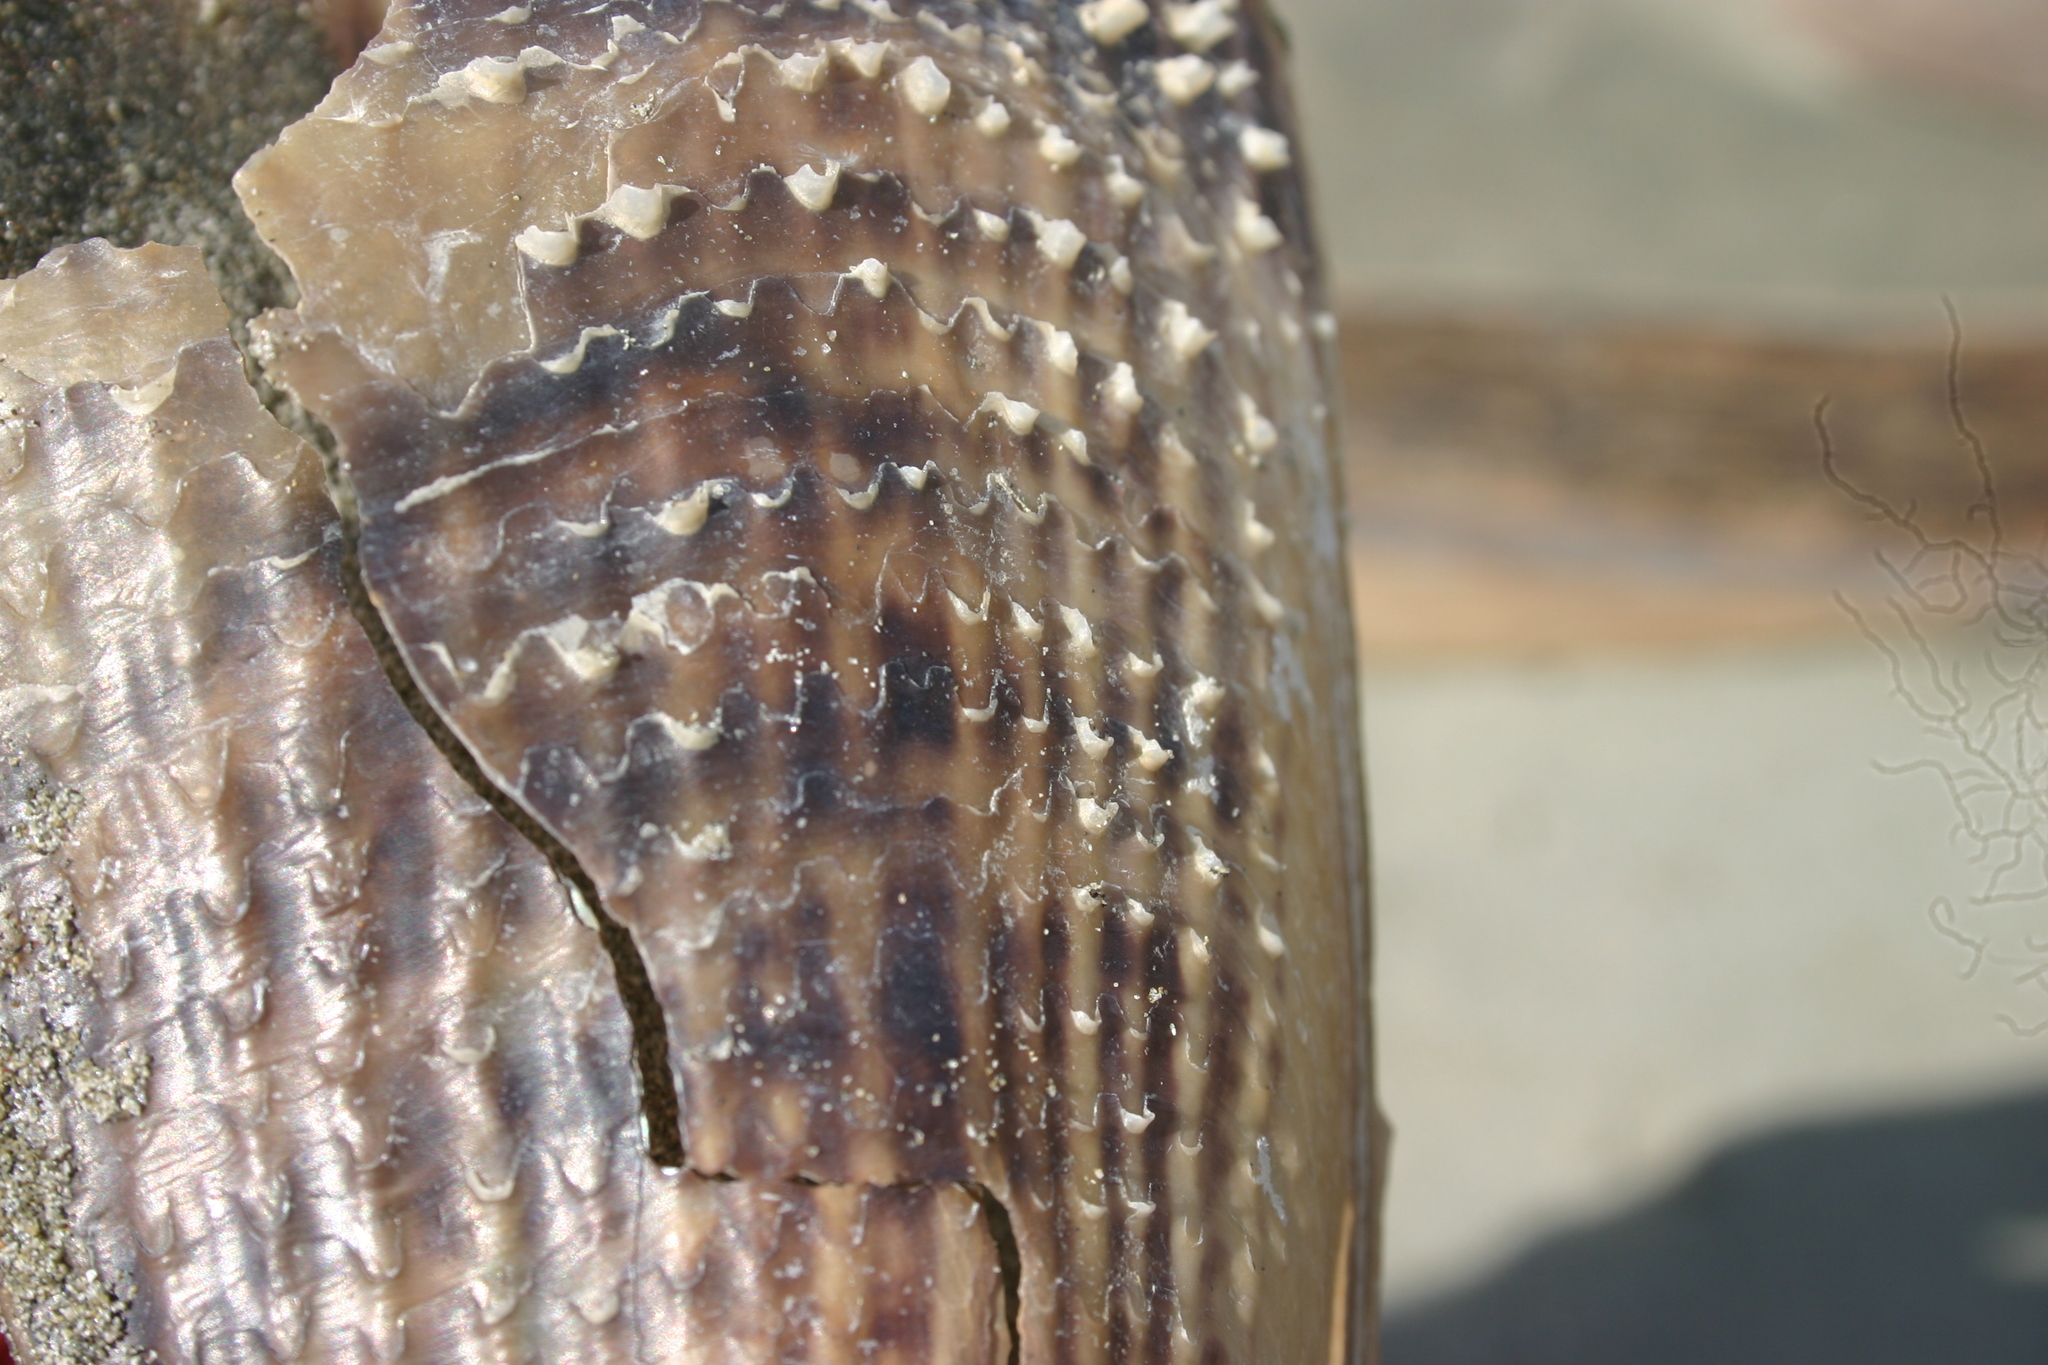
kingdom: Animalia
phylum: Mollusca
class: Bivalvia
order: Ostreida
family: Pinnidae
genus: Atrina
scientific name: Atrina zelandica
